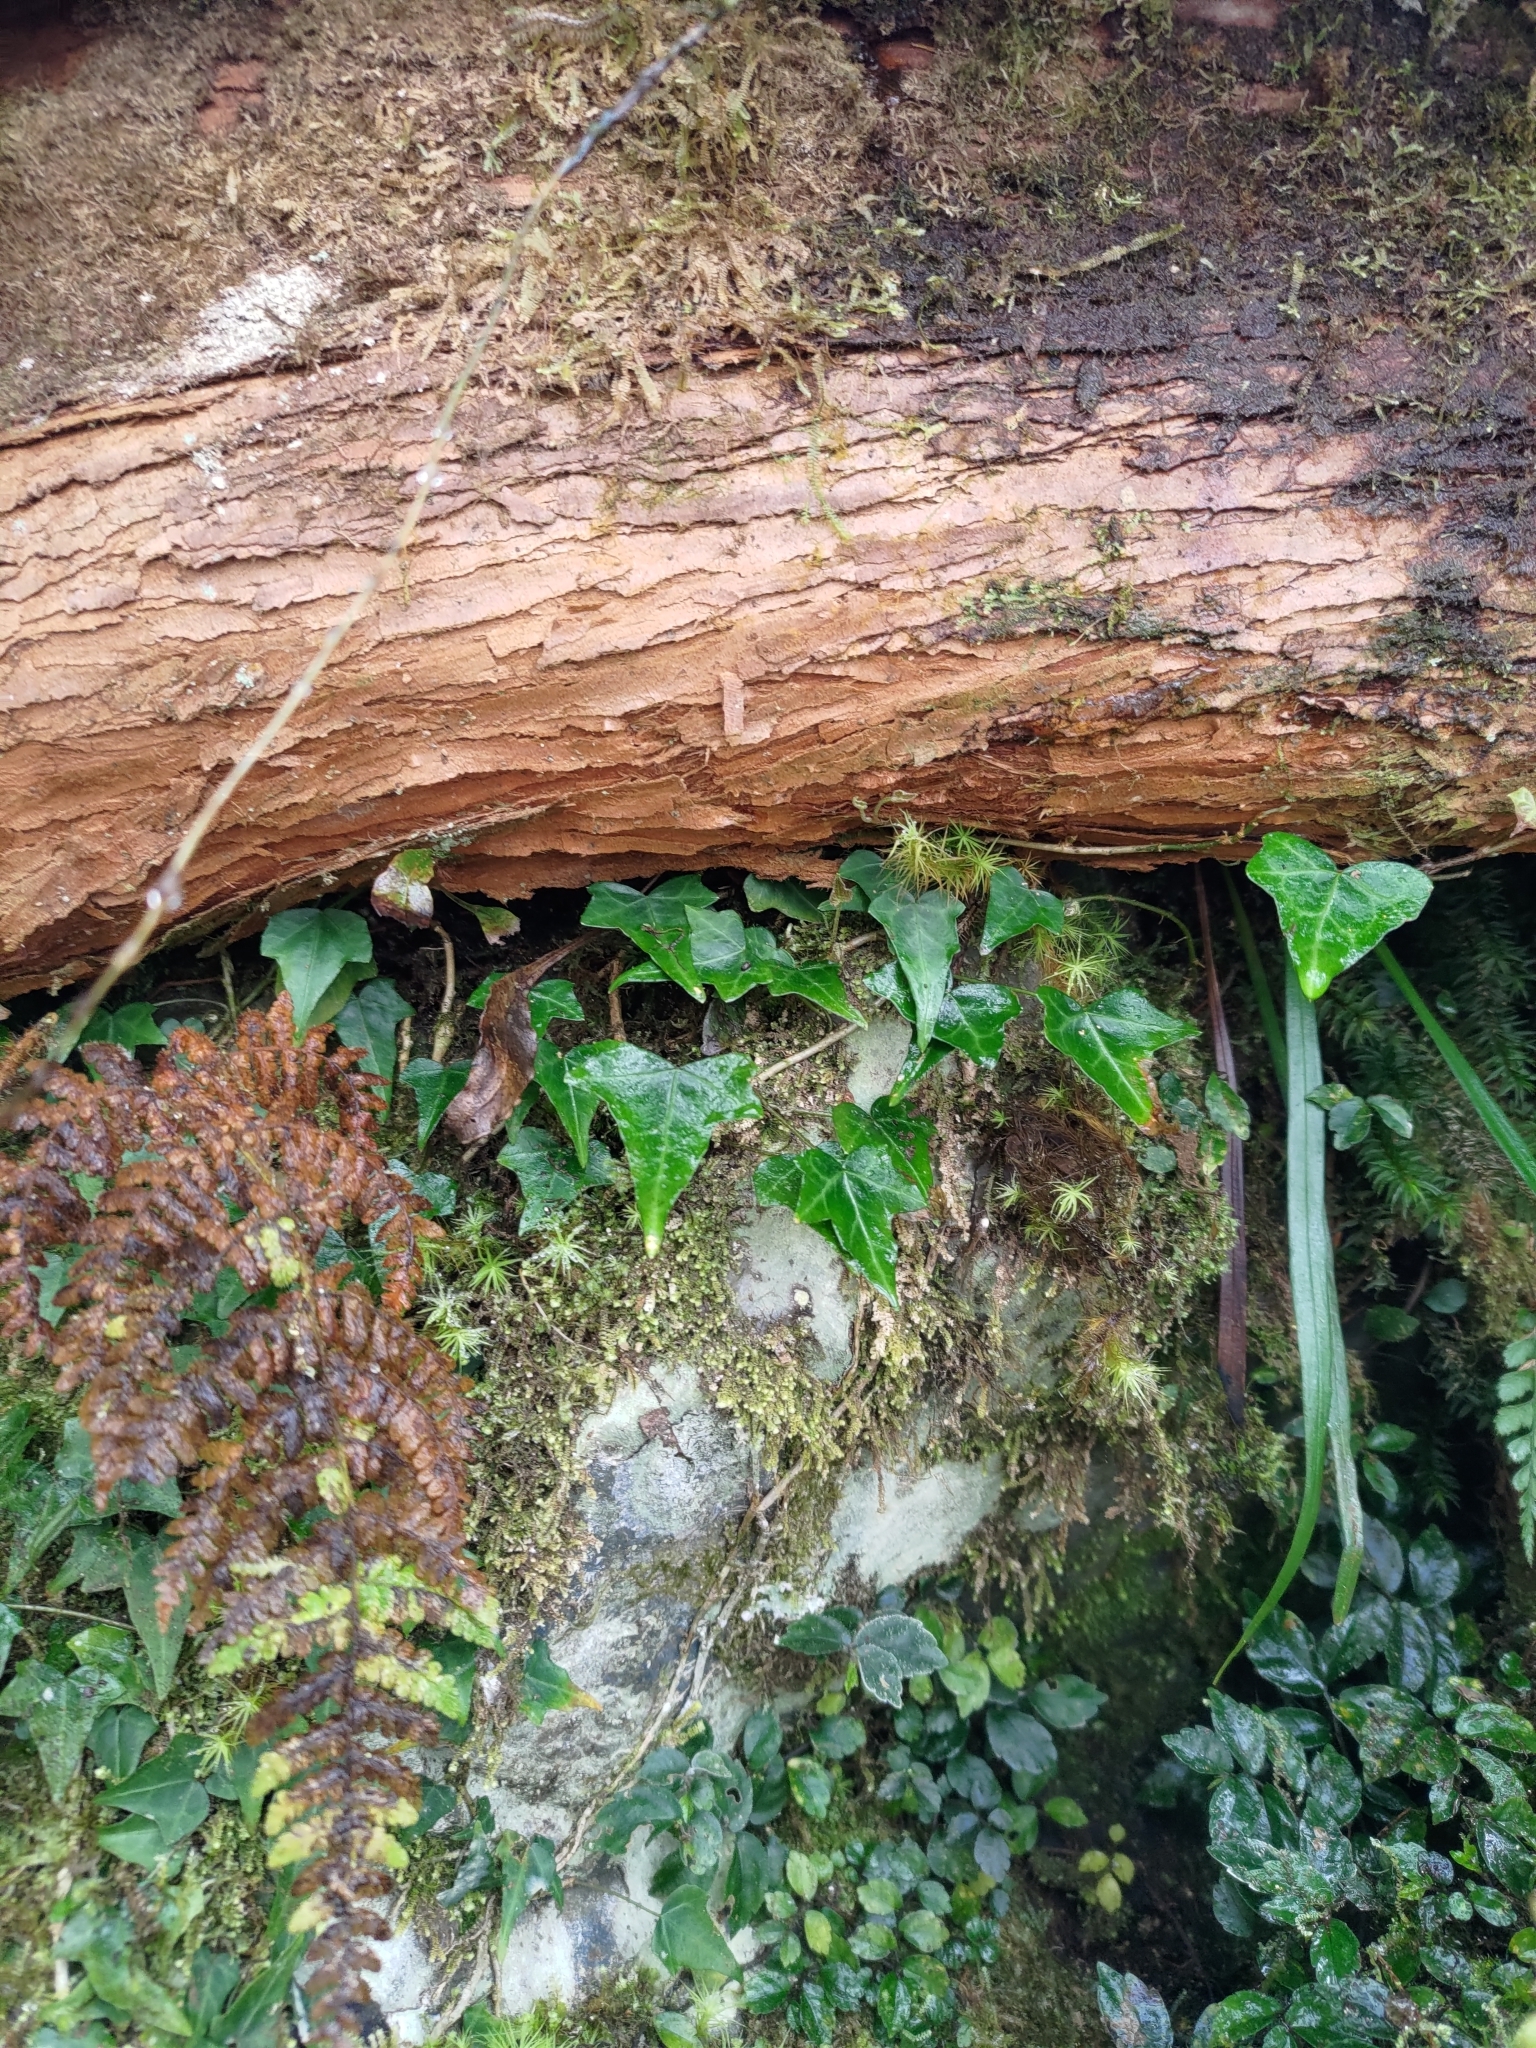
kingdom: Plantae
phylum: Tracheophyta
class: Magnoliopsida
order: Apiales
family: Araliaceae
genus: Hedera
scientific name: Hedera rhombea
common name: Japanese ivy
